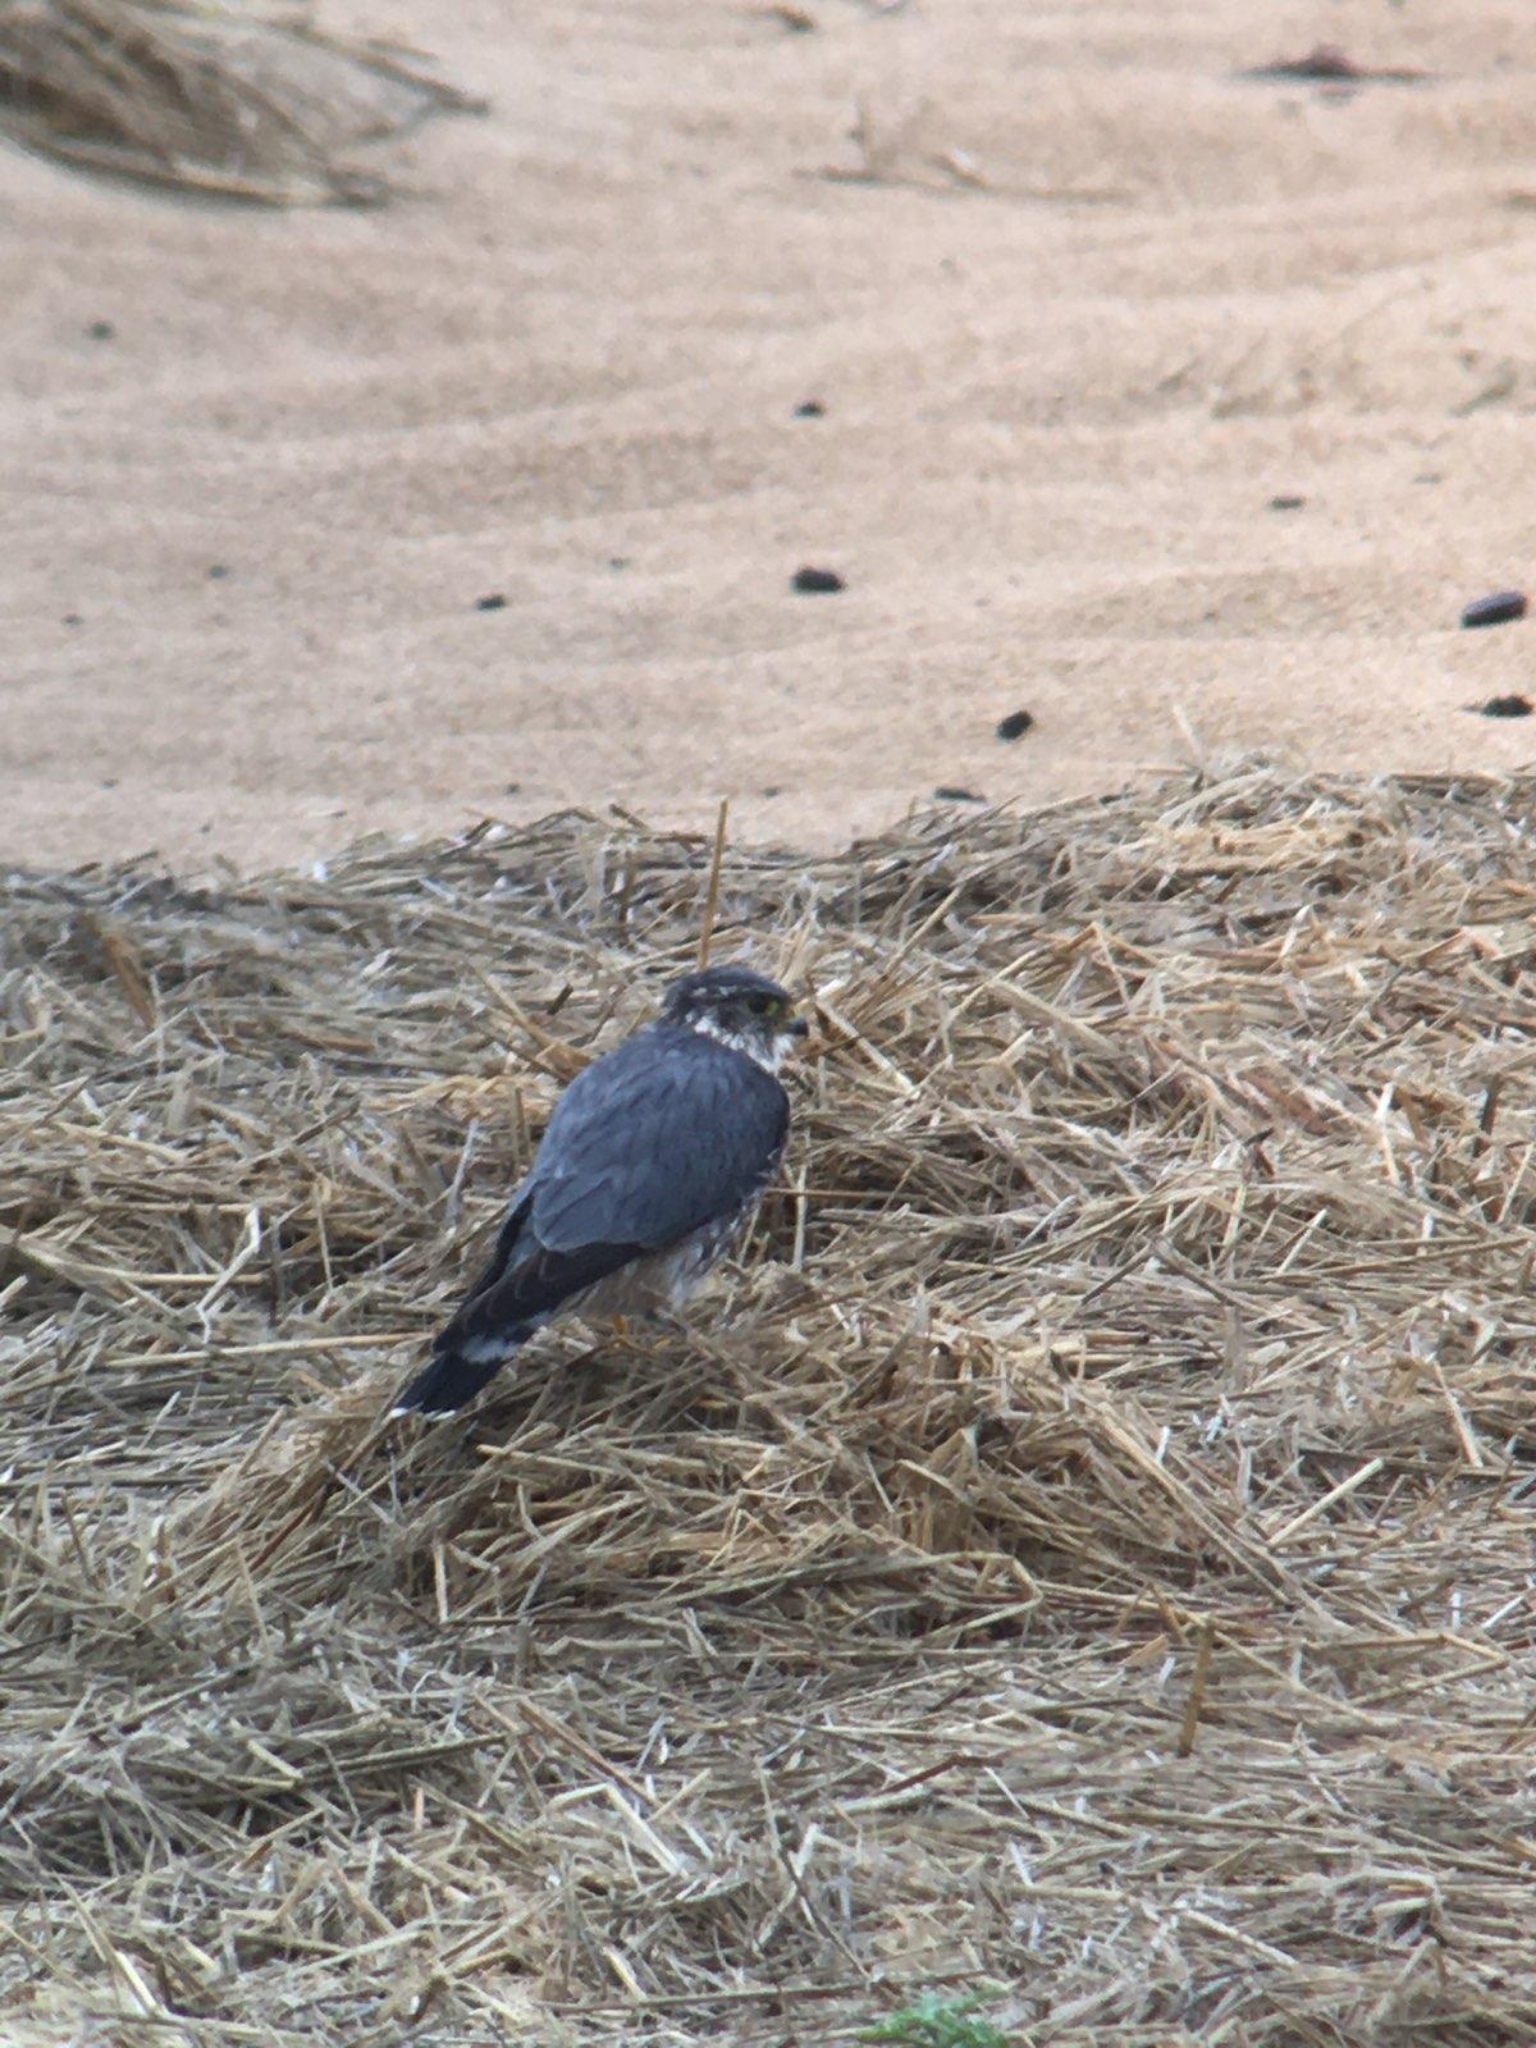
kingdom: Animalia
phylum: Chordata
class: Aves
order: Falconiformes
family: Falconidae
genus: Falco
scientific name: Falco columbarius
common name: Merlin
